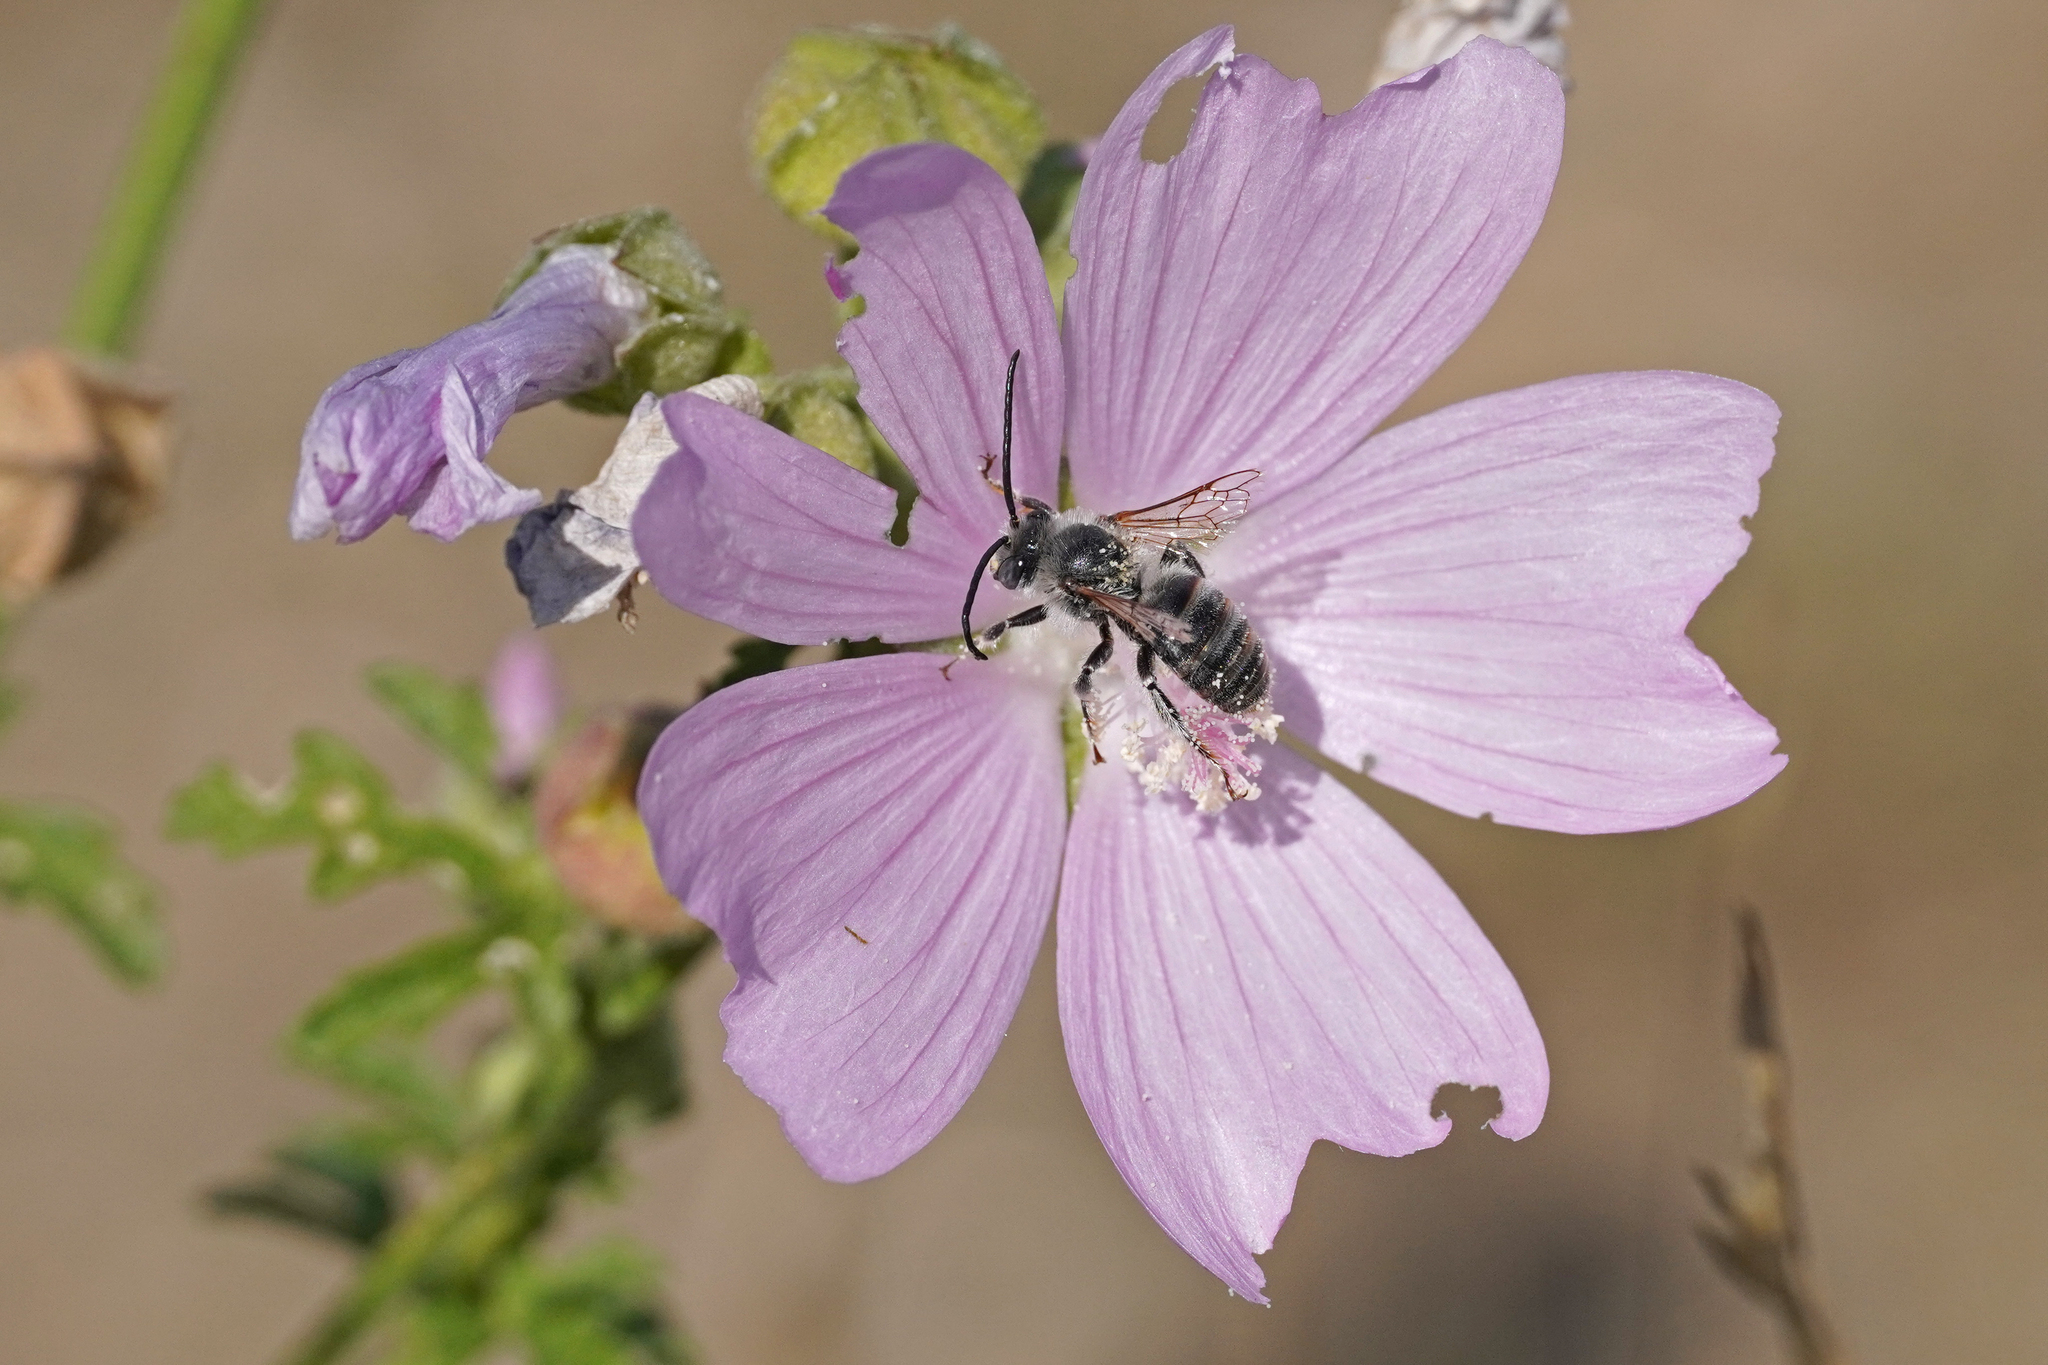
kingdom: Animalia
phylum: Arthropoda
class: Insecta
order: Hymenoptera
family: Apidae
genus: Tetralonia
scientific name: Tetralonia malvae
